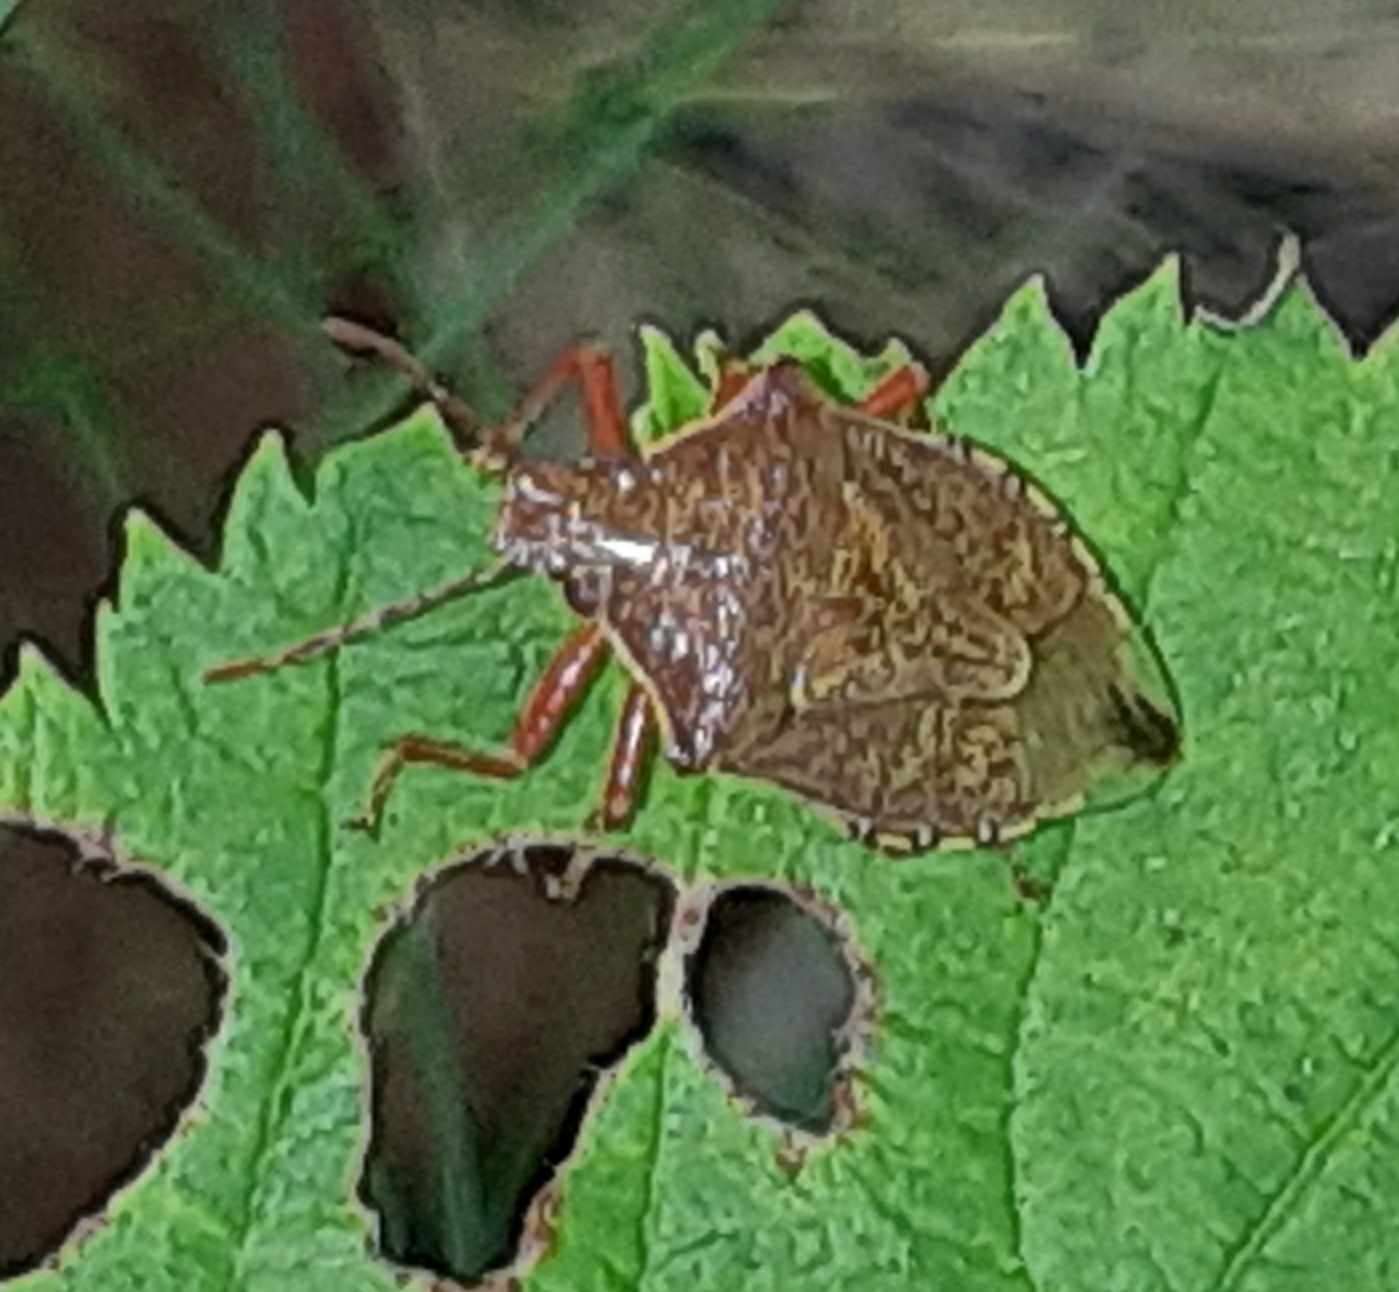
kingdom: Animalia
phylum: Arthropoda
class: Insecta
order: Hemiptera
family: Pentatomidae
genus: Podisus
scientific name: Podisus
